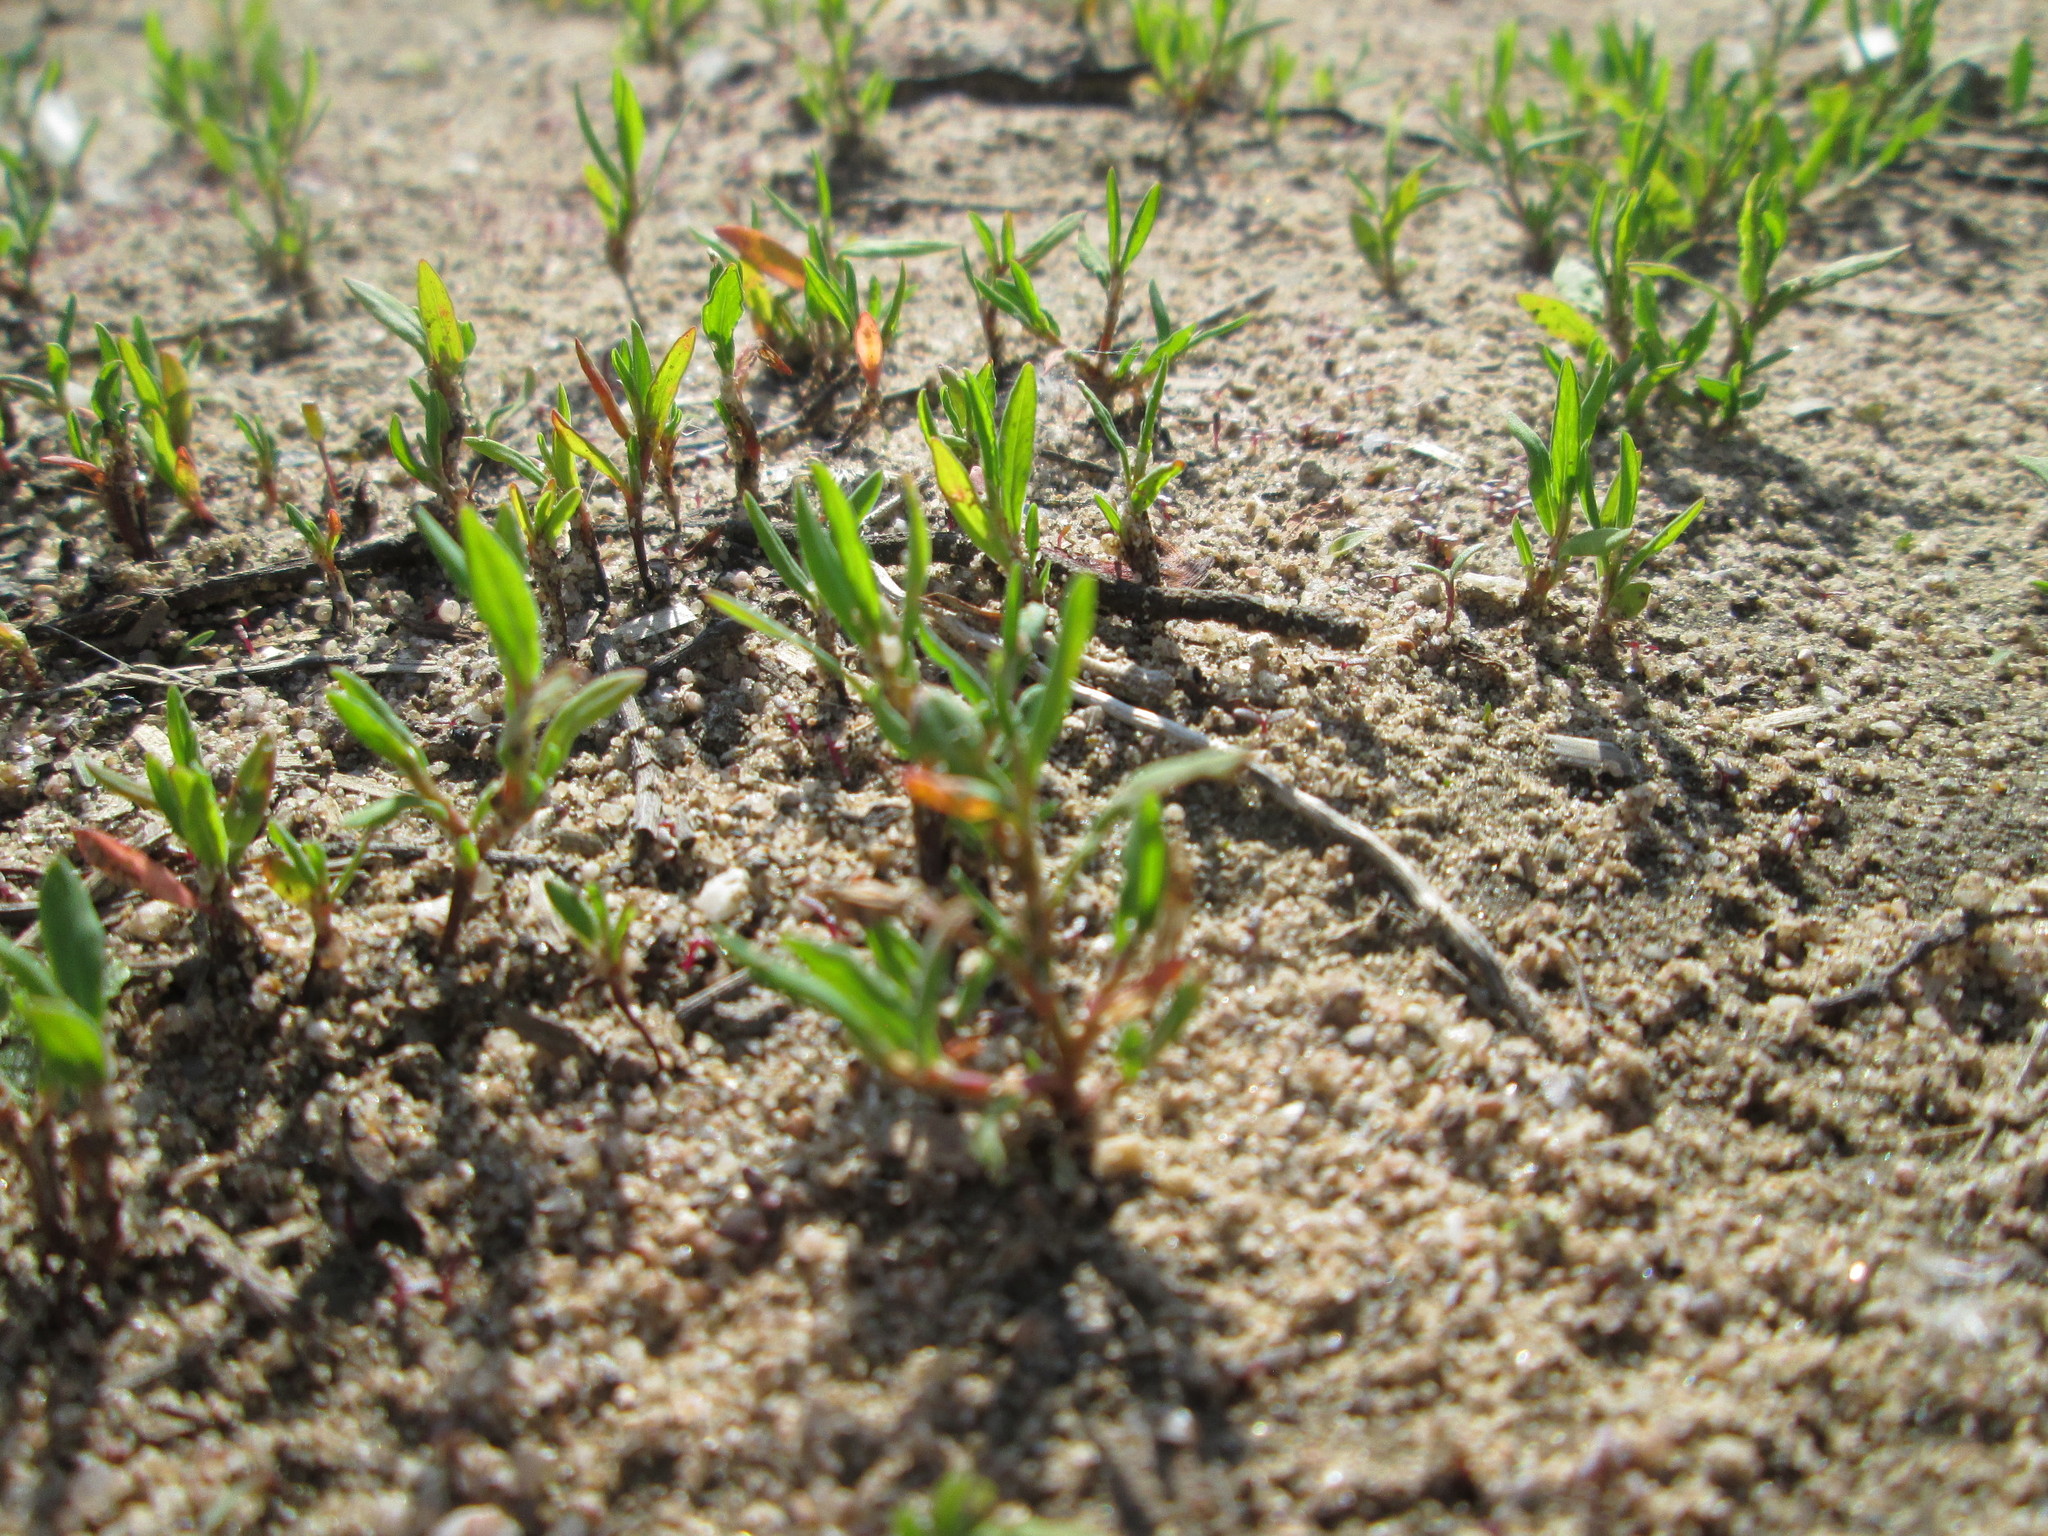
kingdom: Plantae
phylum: Tracheophyta
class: Magnoliopsida
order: Caryophyllales
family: Polygonaceae
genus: Polygonum
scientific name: Polygonum aviculare
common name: Prostrate knotweed
